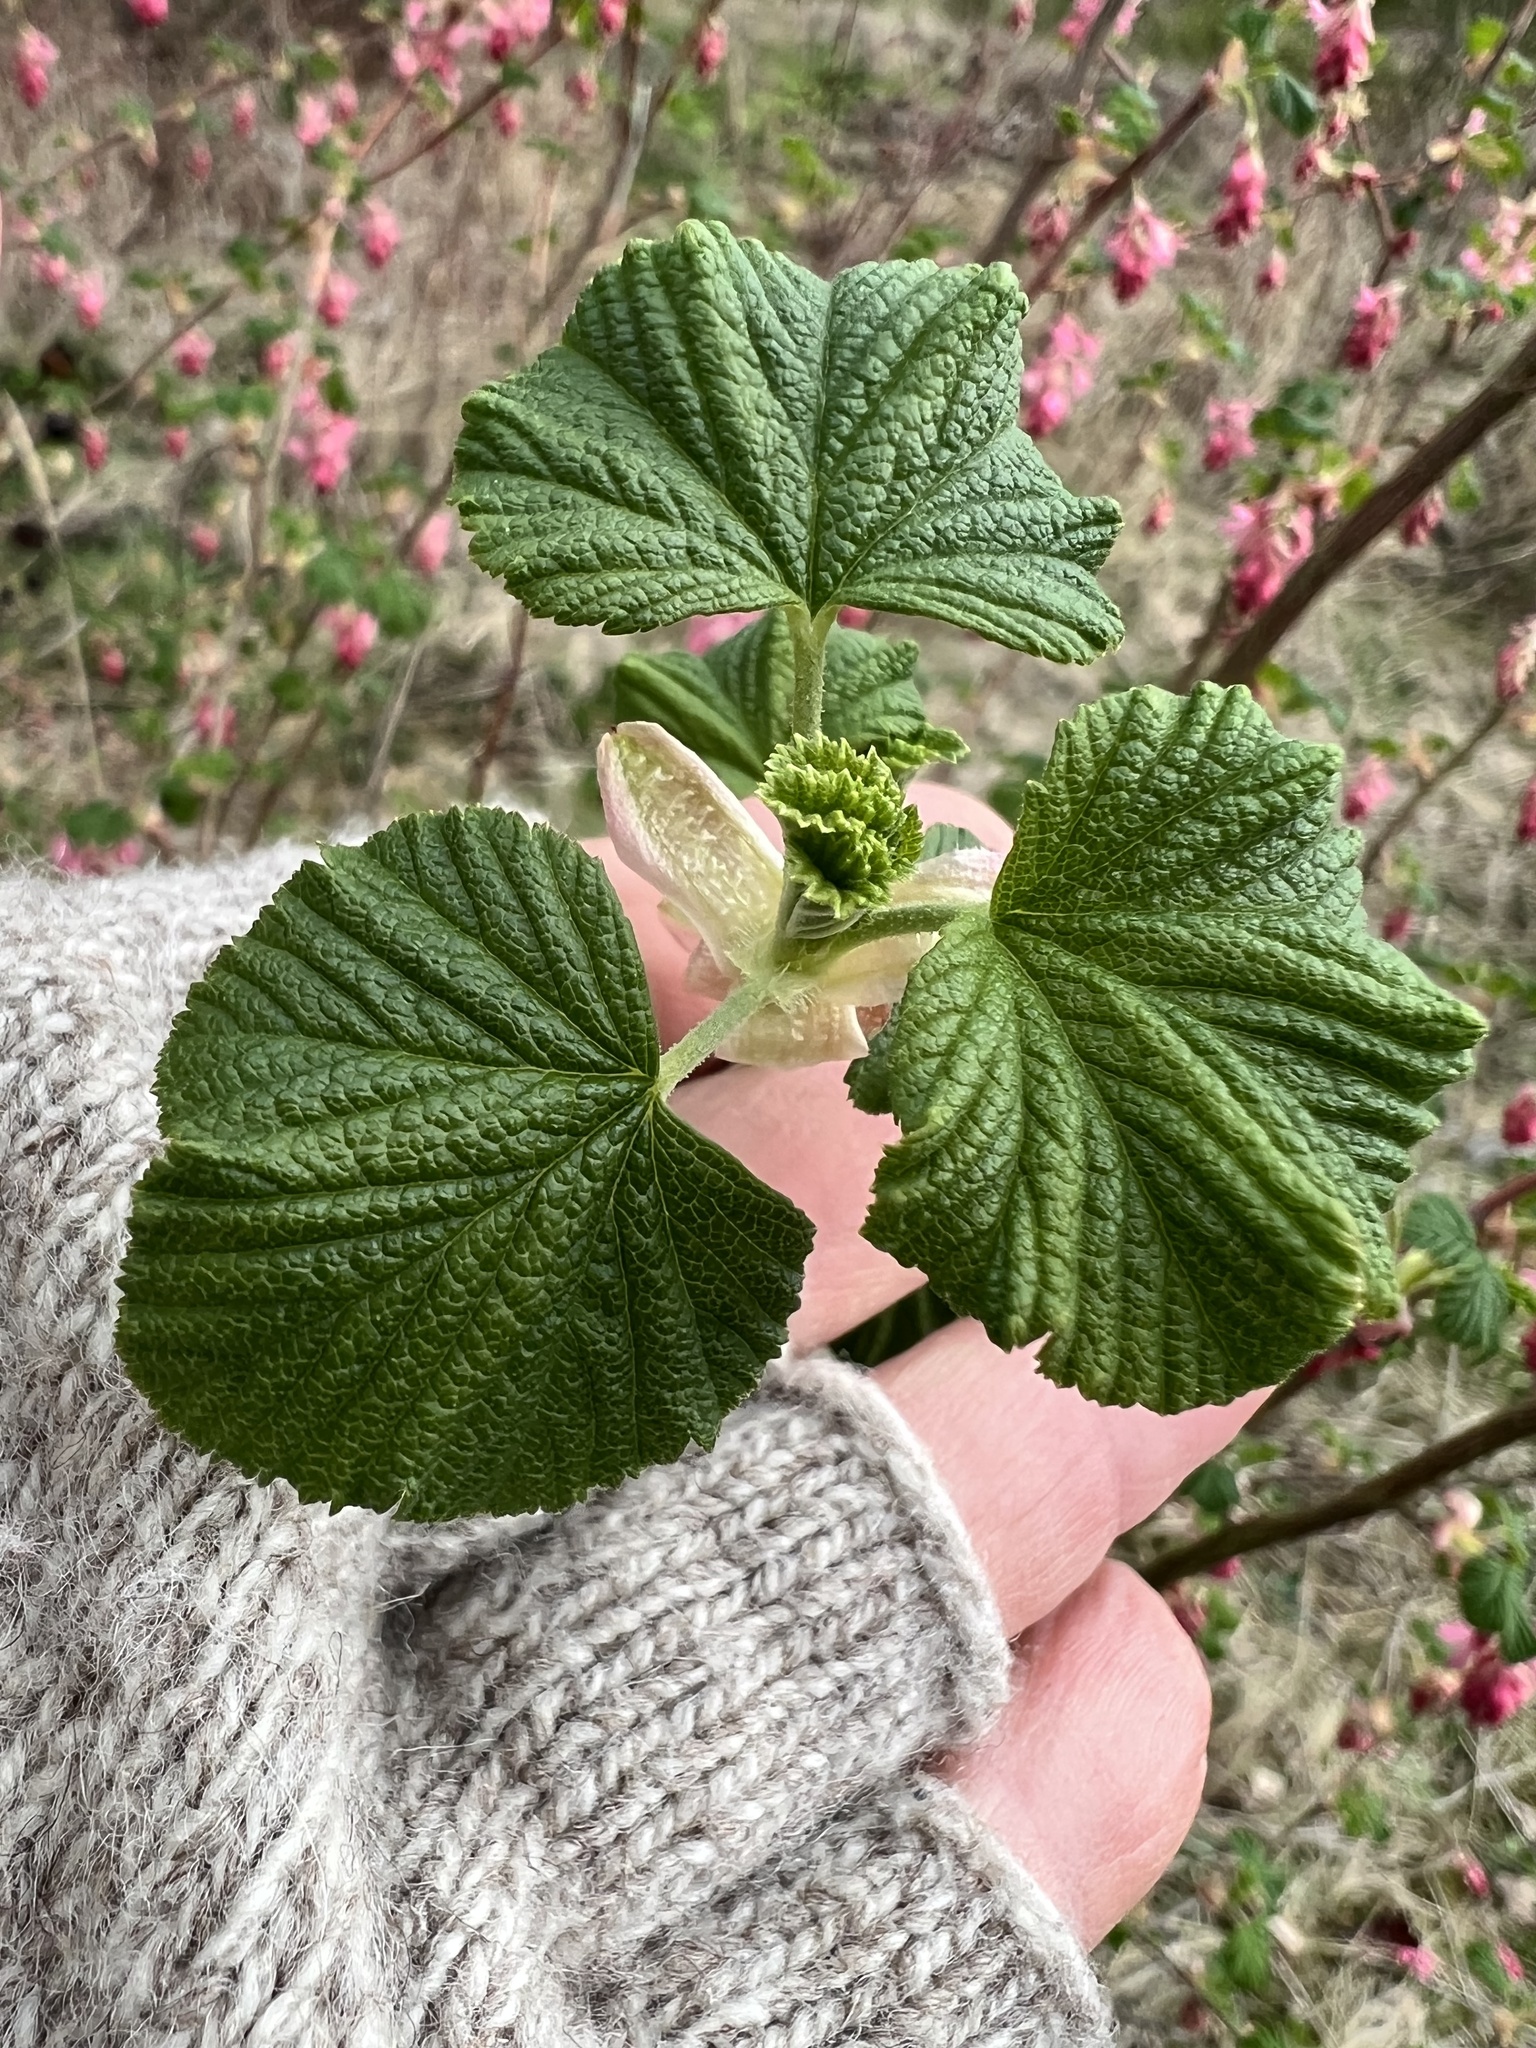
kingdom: Plantae
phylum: Tracheophyta
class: Magnoliopsida
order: Saxifragales
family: Grossulariaceae
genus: Ribes
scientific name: Ribes sanguineum
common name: Flowering currant
